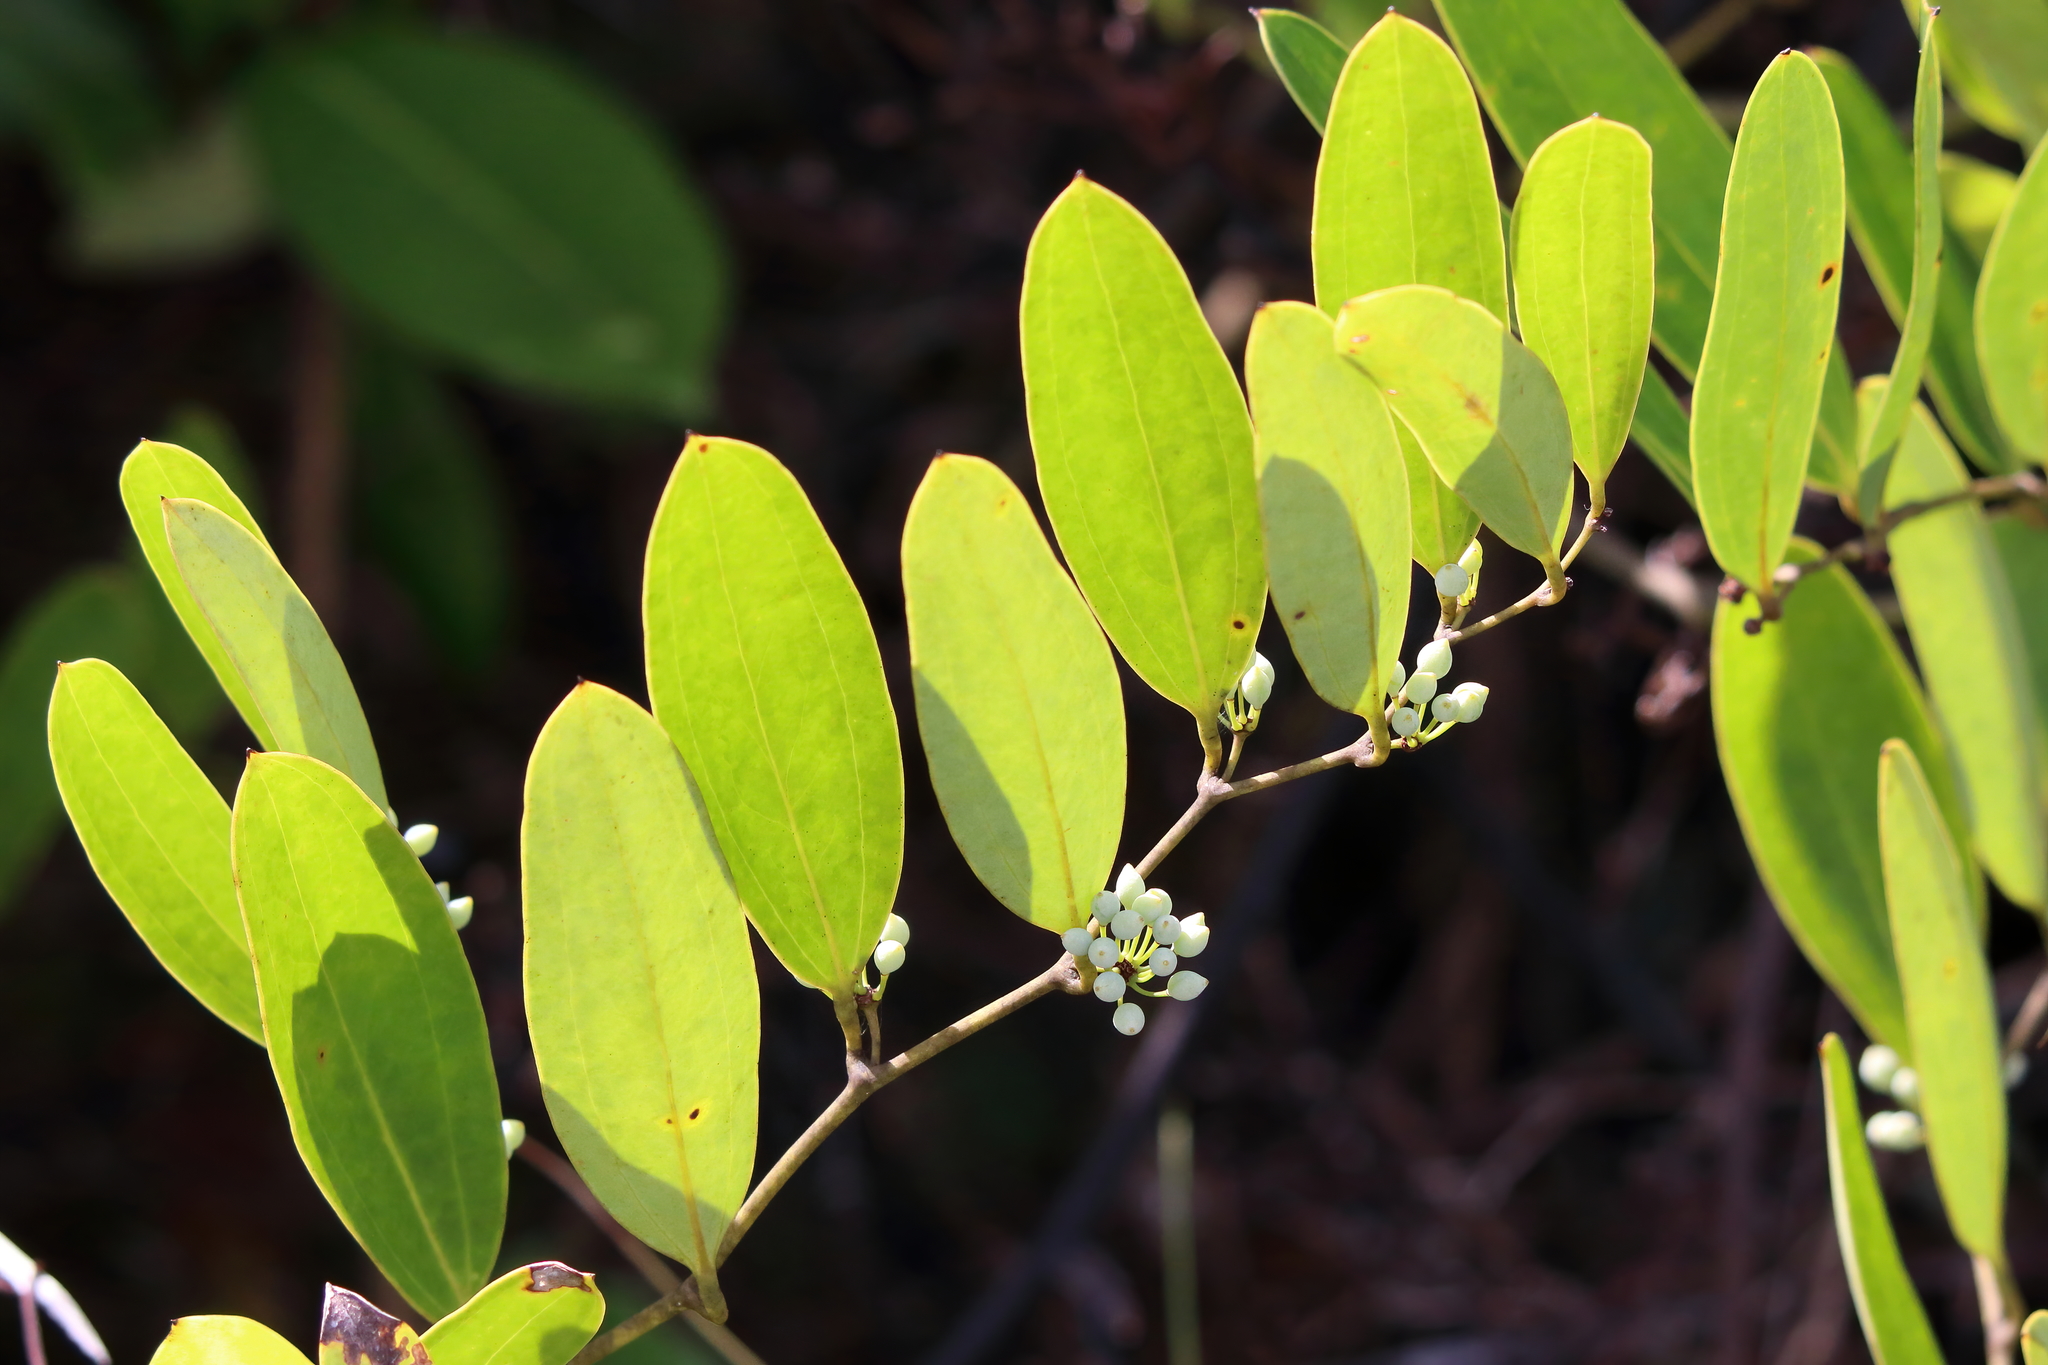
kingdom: Plantae
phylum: Tracheophyta
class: Liliopsida
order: Liliales
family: Smilacaceae
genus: Smilax
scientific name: Smilax laurifolia
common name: Bamboovine
